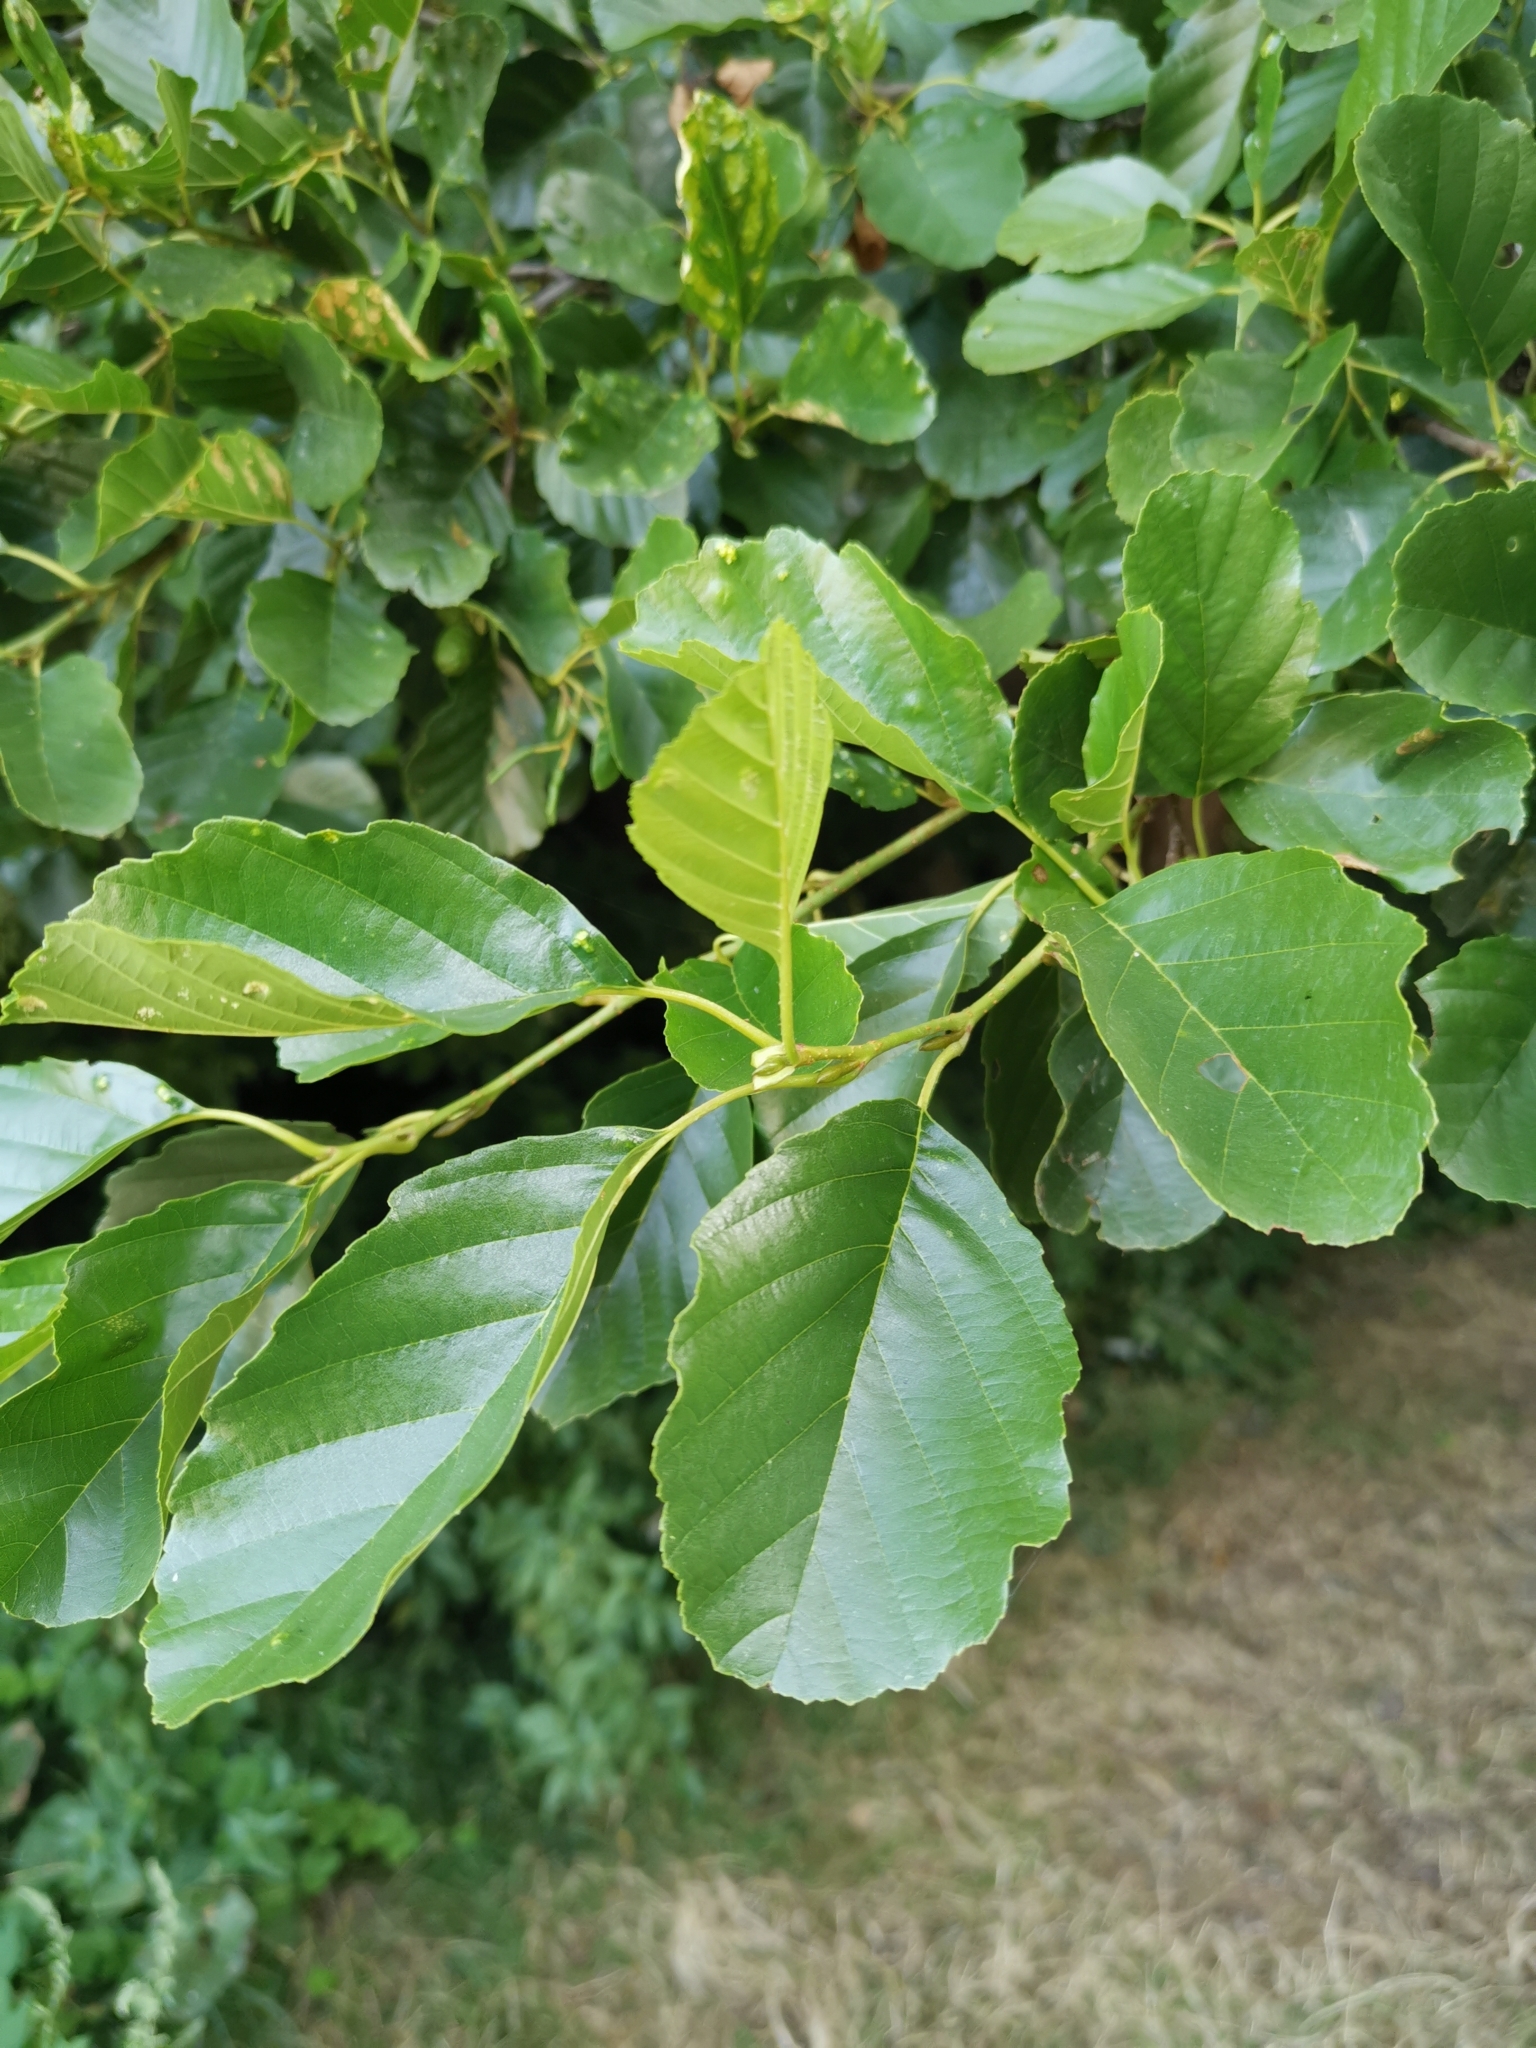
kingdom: Plantae
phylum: Tracheophyta
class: Magnoliopsida
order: Fagales
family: Betulaceae
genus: Alnus
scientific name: Alnus glutinosa
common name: Black alder
